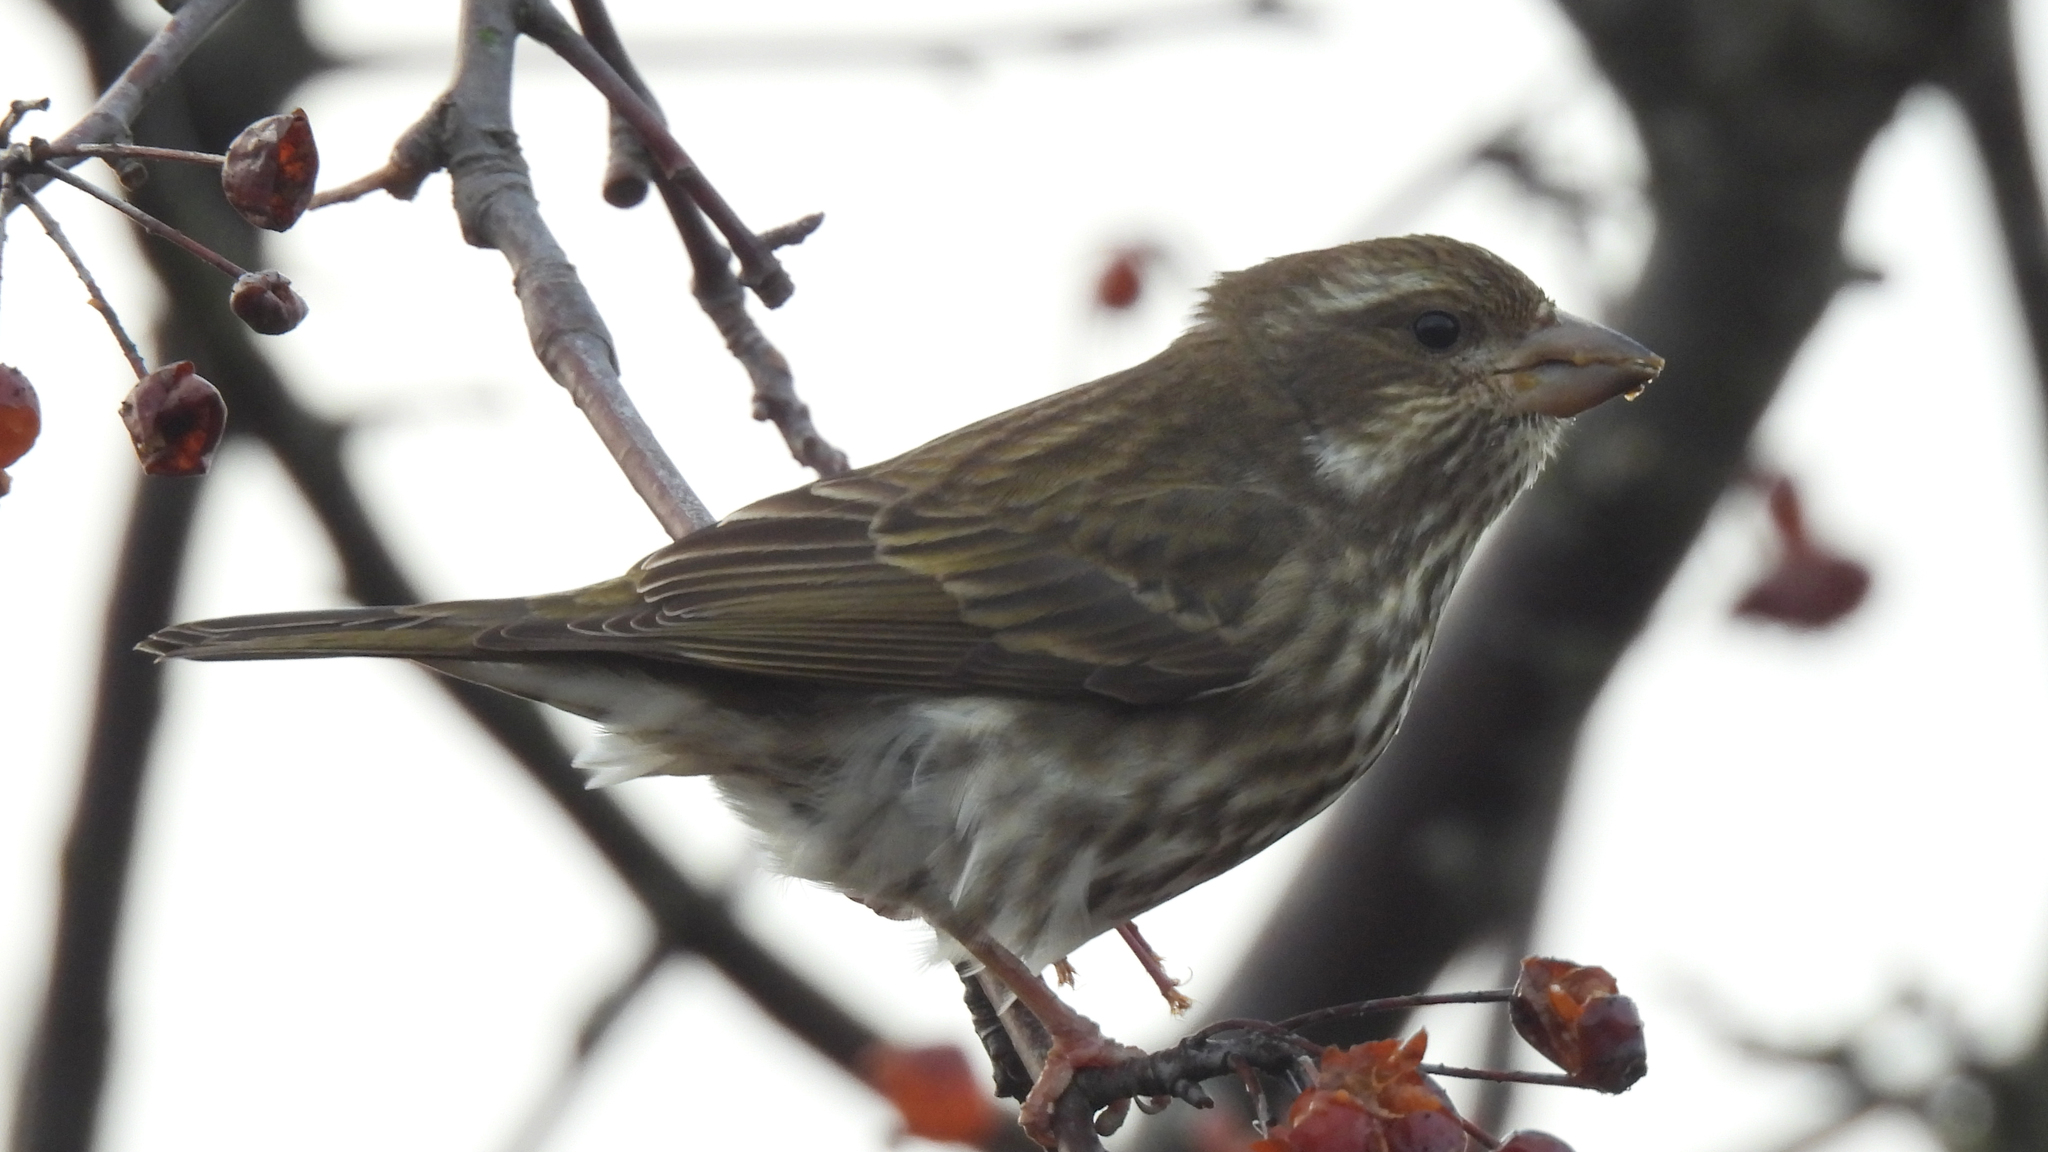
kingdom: Animalia
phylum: Chordata
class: Aves
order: Passeriformes
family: Fringillidae
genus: Haemorhous
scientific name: Haemorhous purpureus
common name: Purple finch
